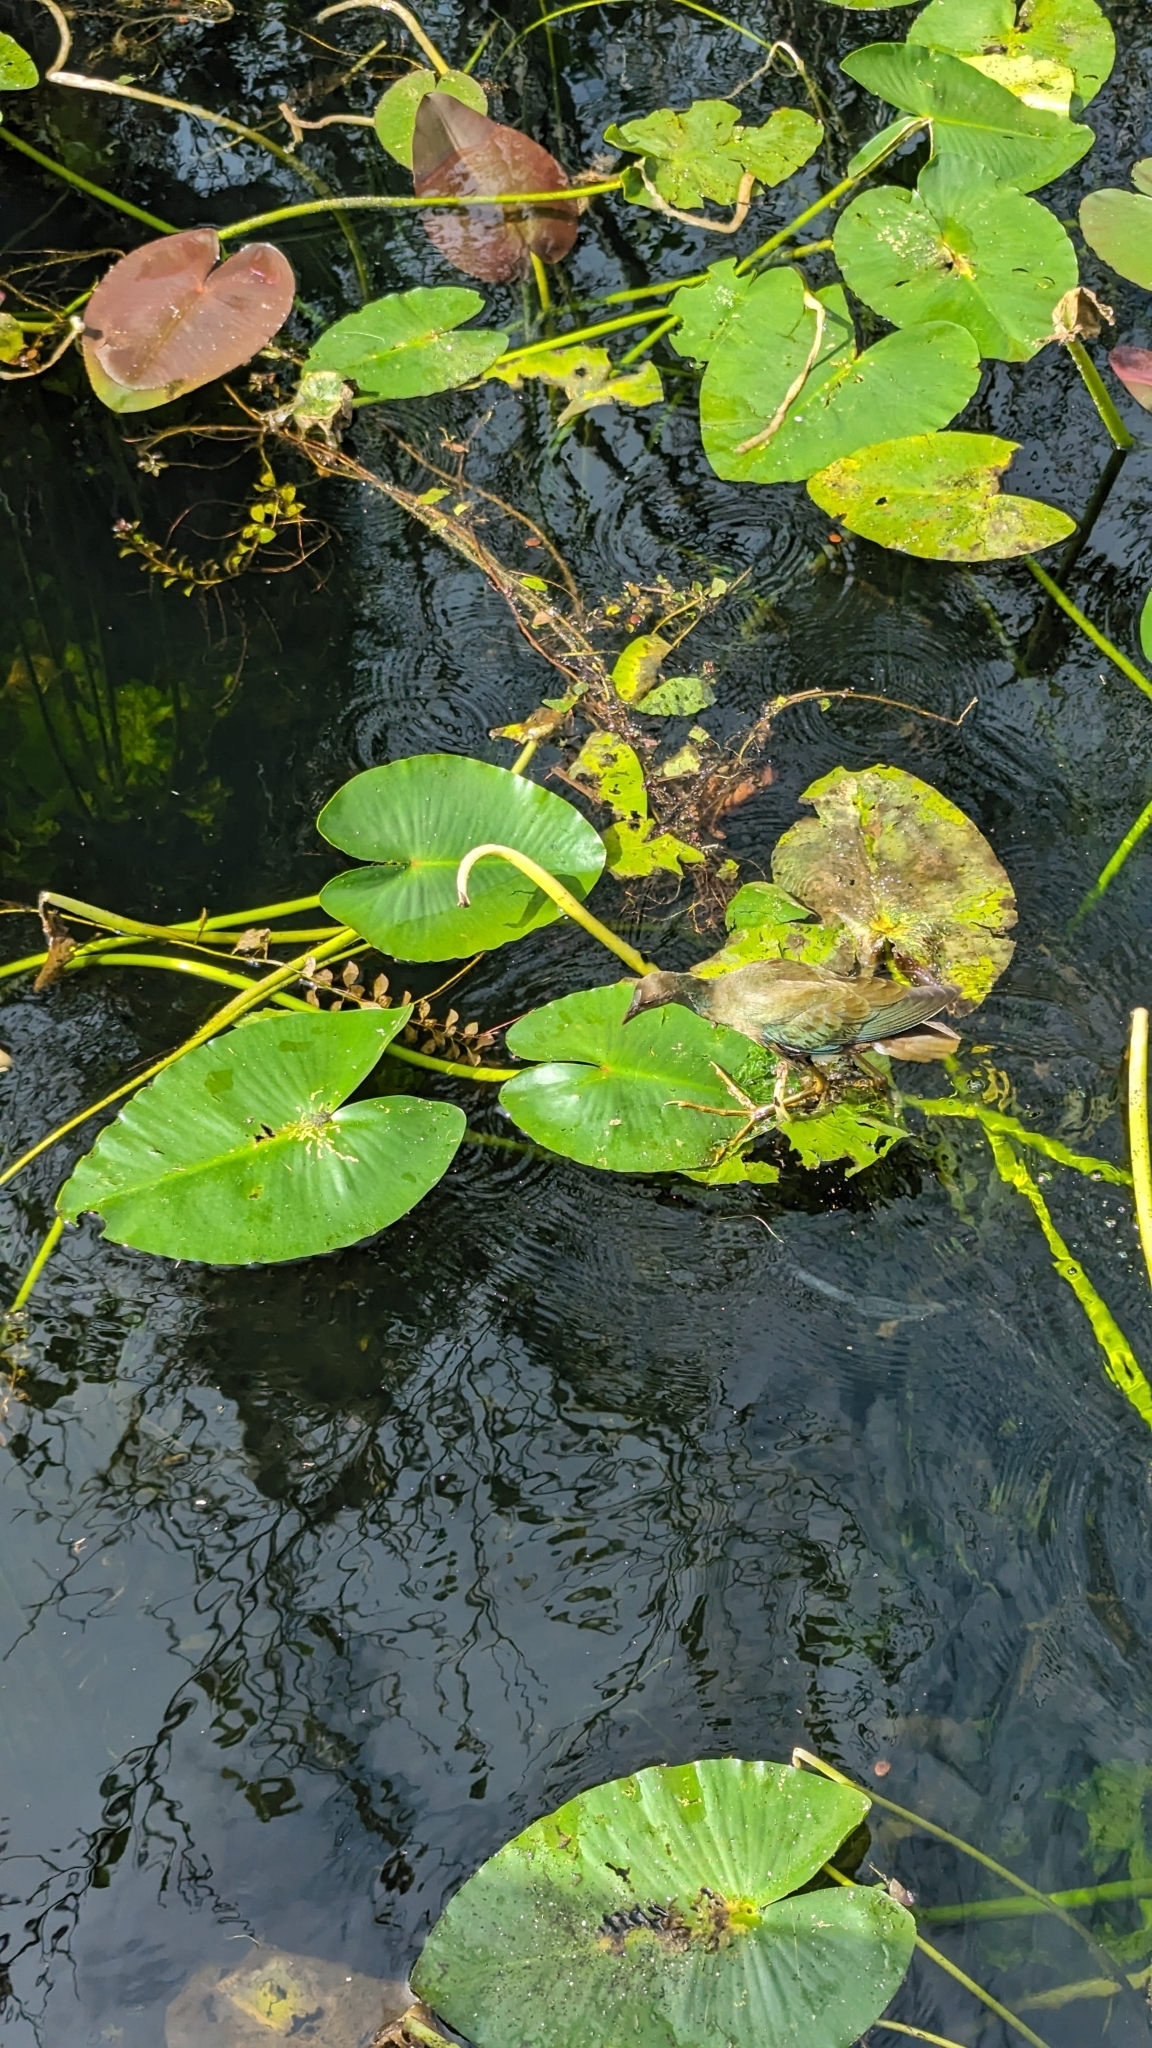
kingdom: Plantae
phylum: Tracheophyta
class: Magnoliopsida
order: Nymphaeales
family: Nymphaeaceae
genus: Nuphar
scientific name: Nuphar advena
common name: Spatter-dock
